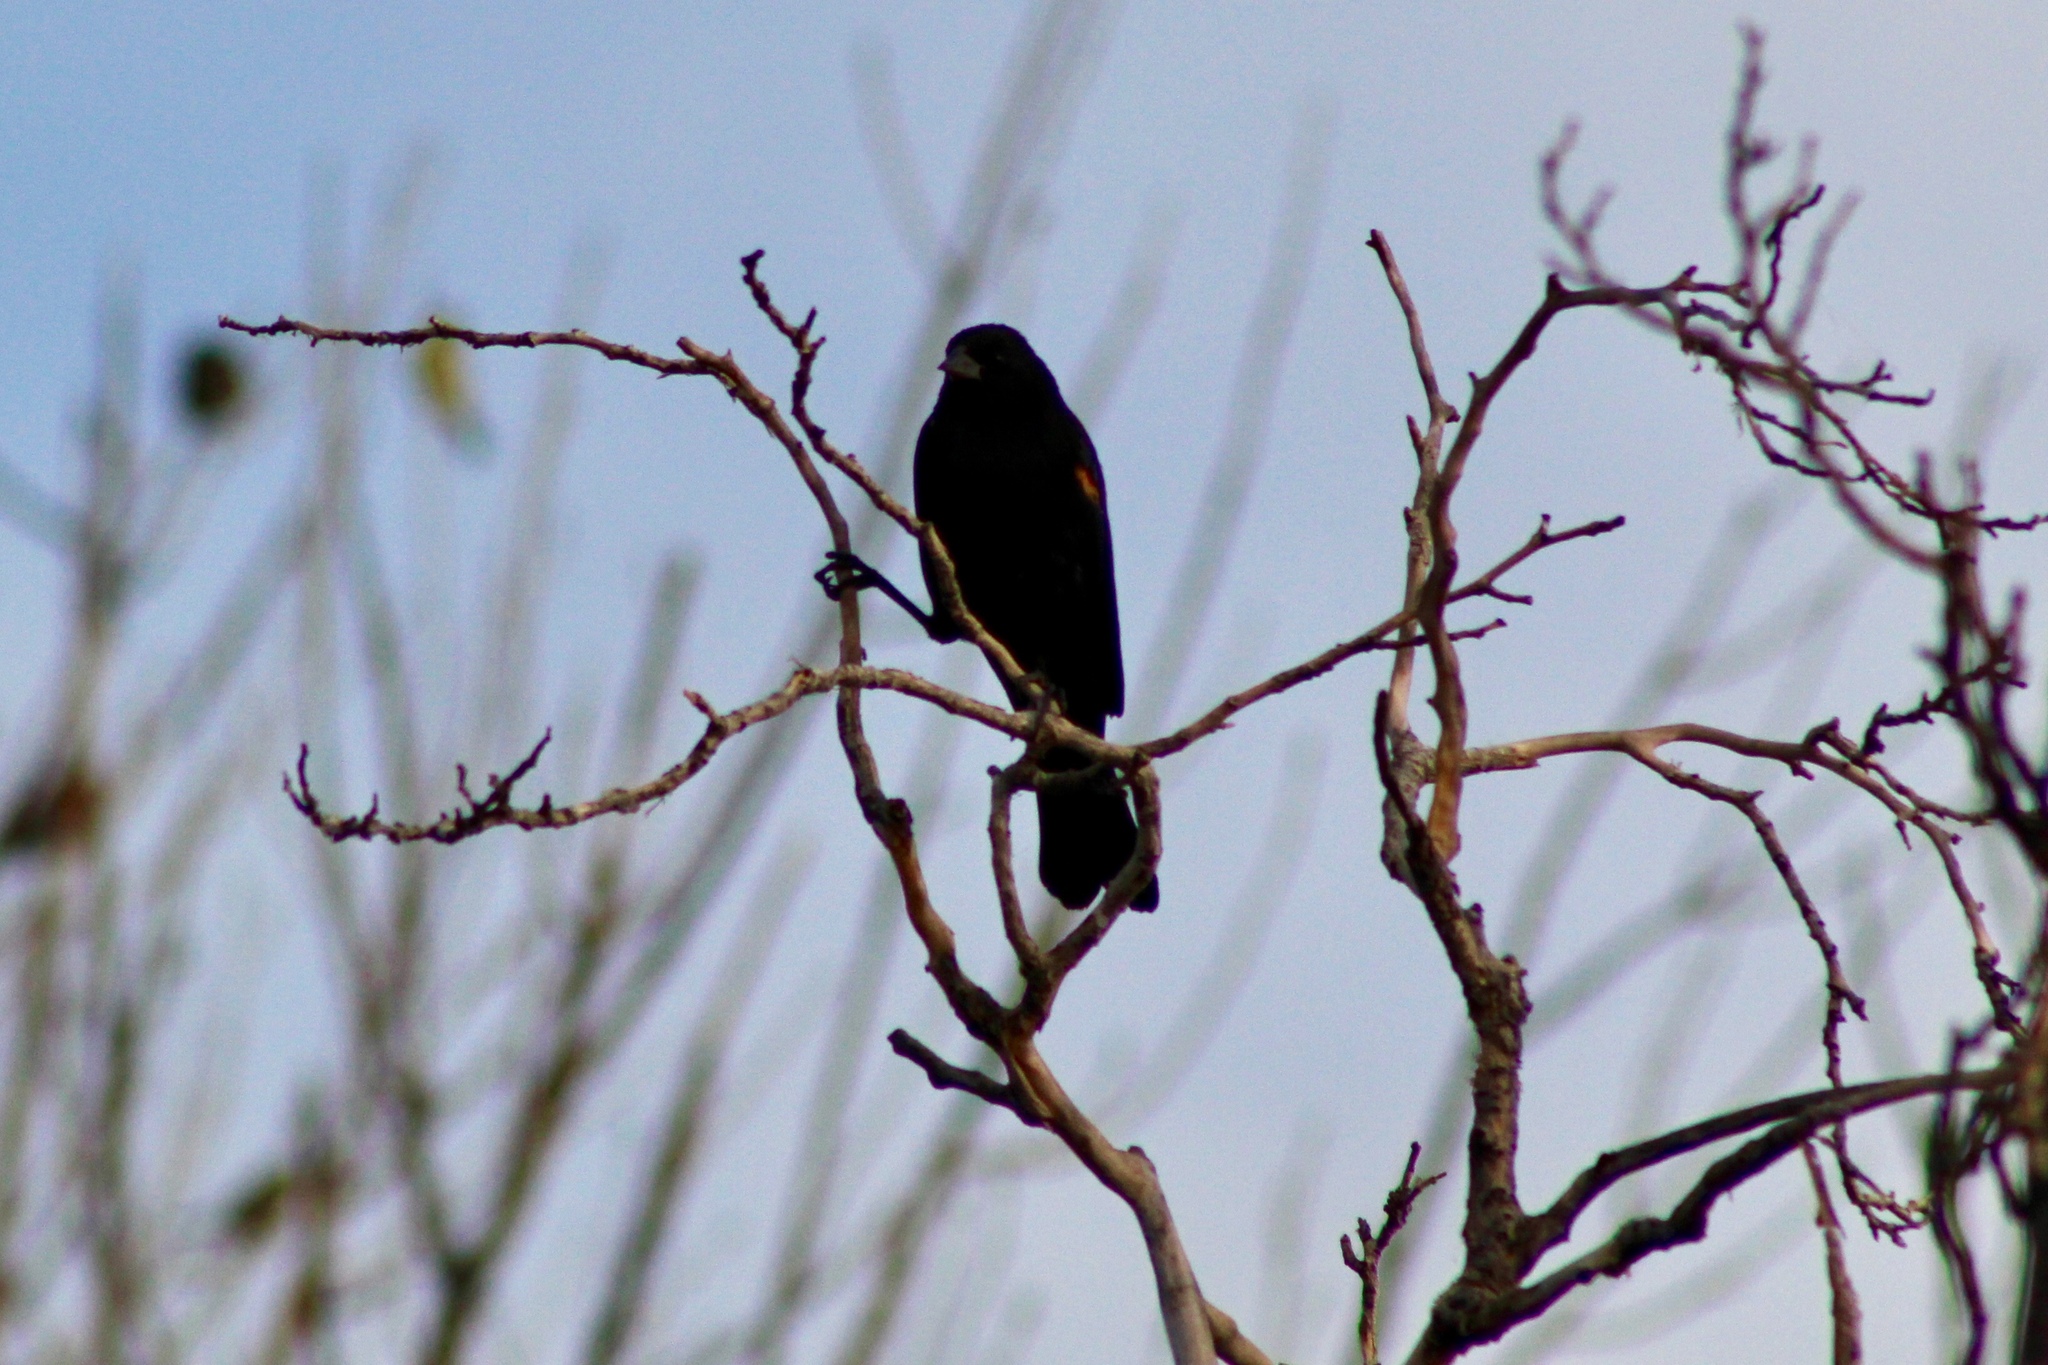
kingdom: Animalia
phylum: Chordata
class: Aves
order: Passeriformes
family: Icteridae
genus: Agelaius
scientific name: Agelaius phoeniceus
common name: Red-winged blackbird
